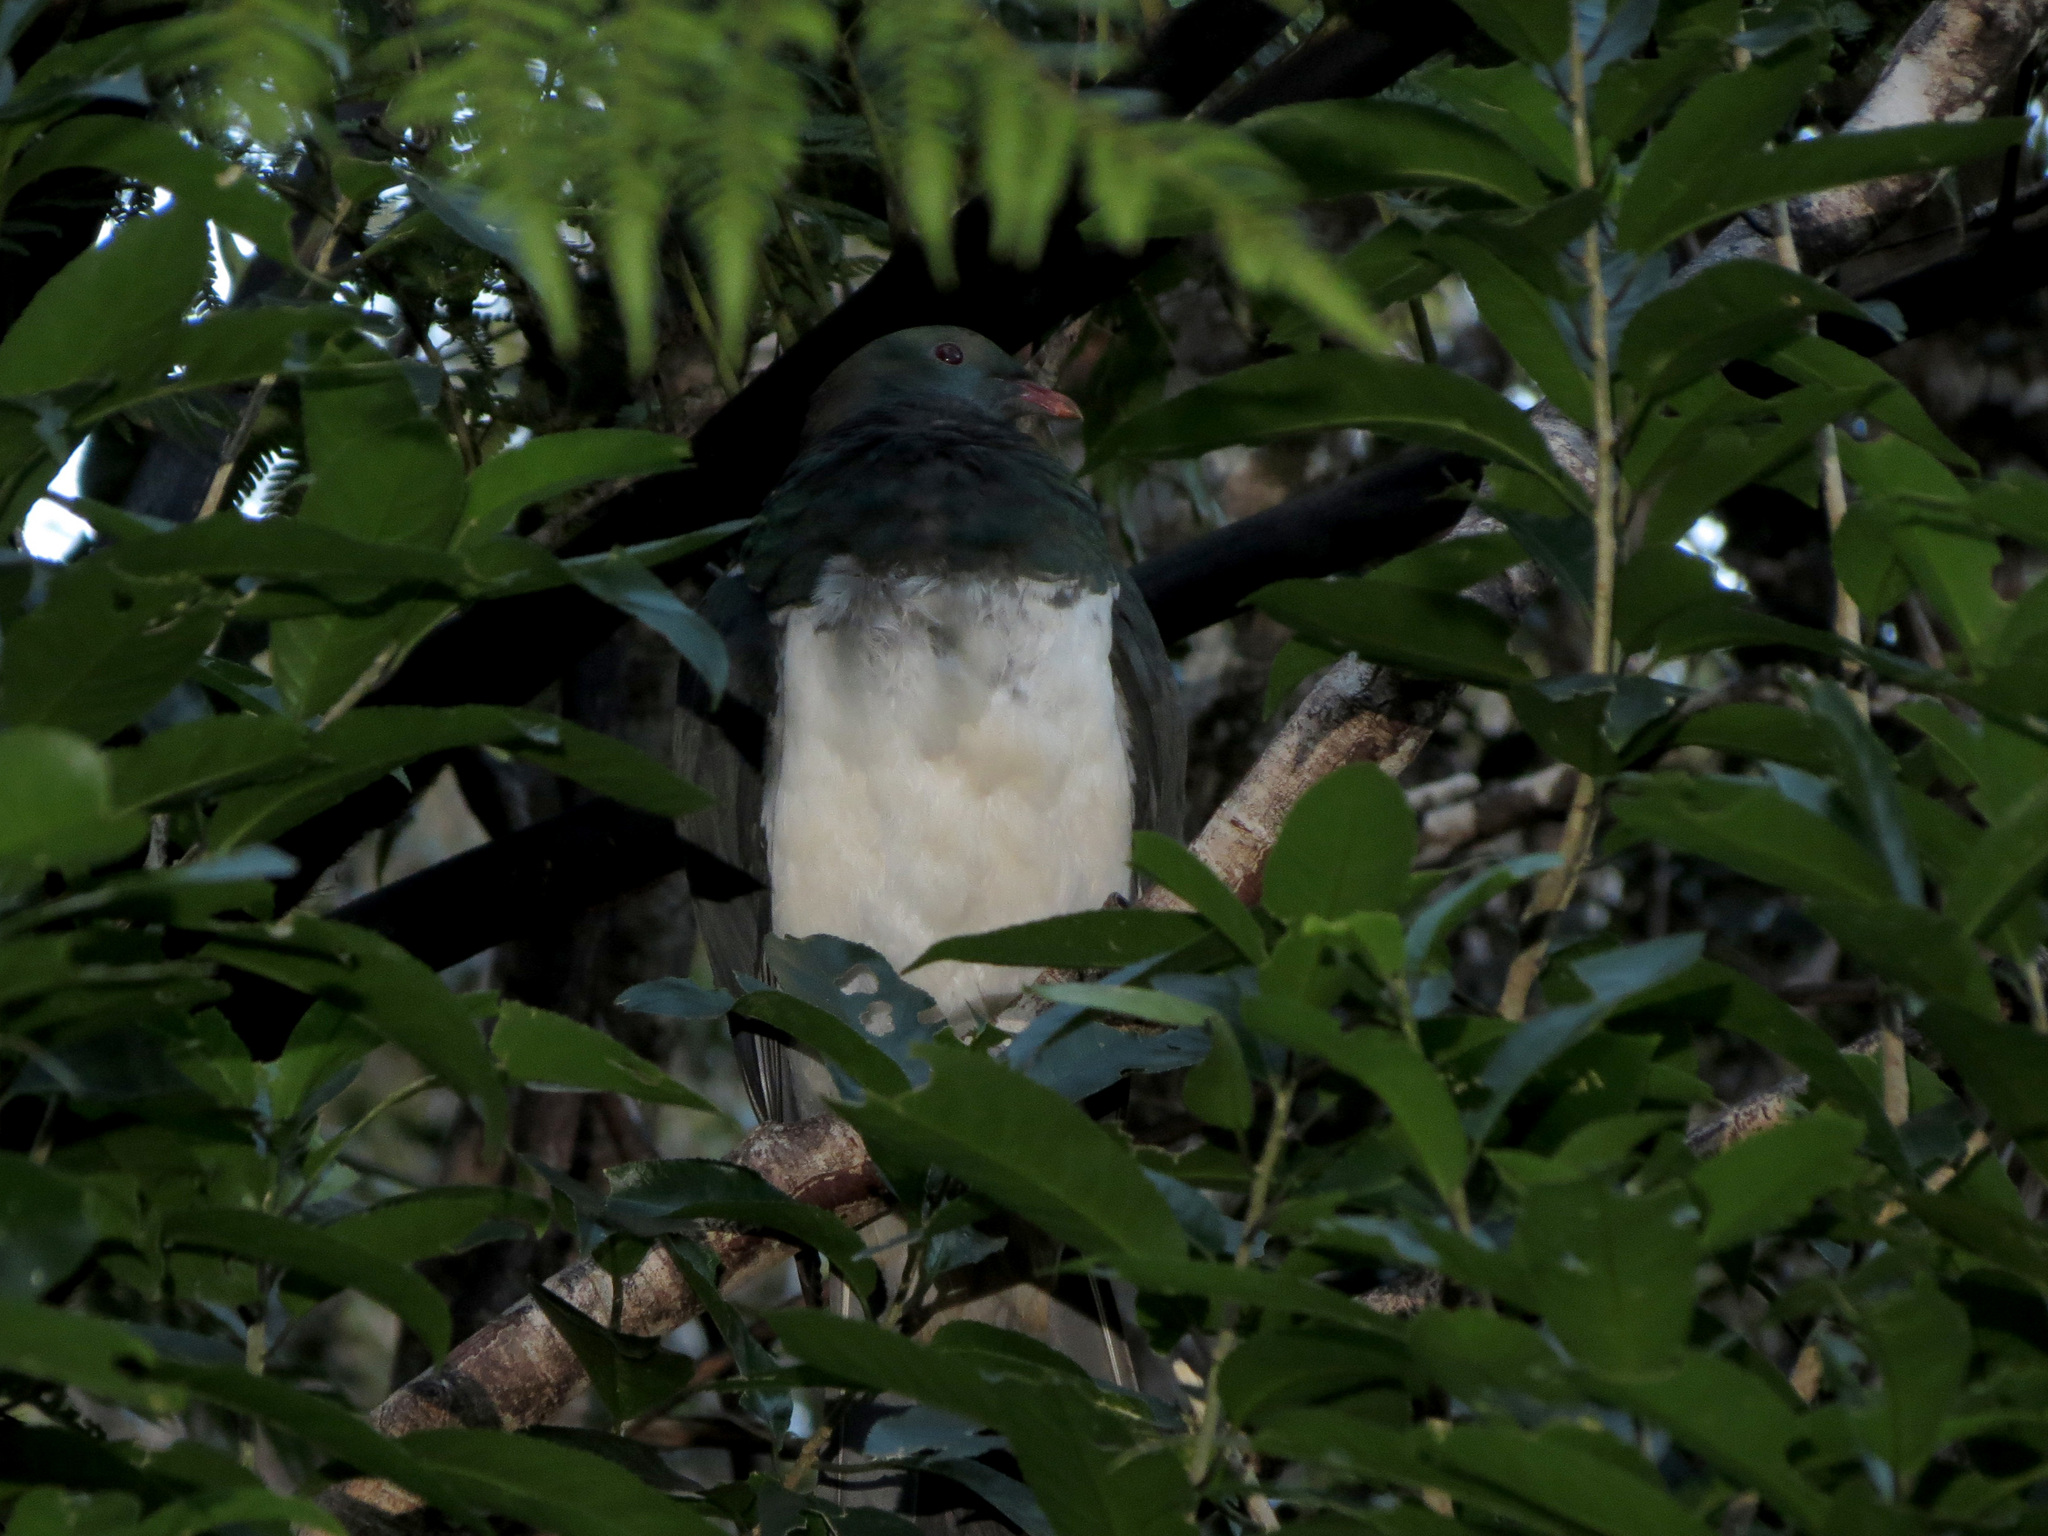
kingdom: Animalia
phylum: Chordata
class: Aves
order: Columbiformes
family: Columbidae
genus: Hemiphaga
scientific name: Hemiphaga novaeseelandiae
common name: New zealand pigeon
